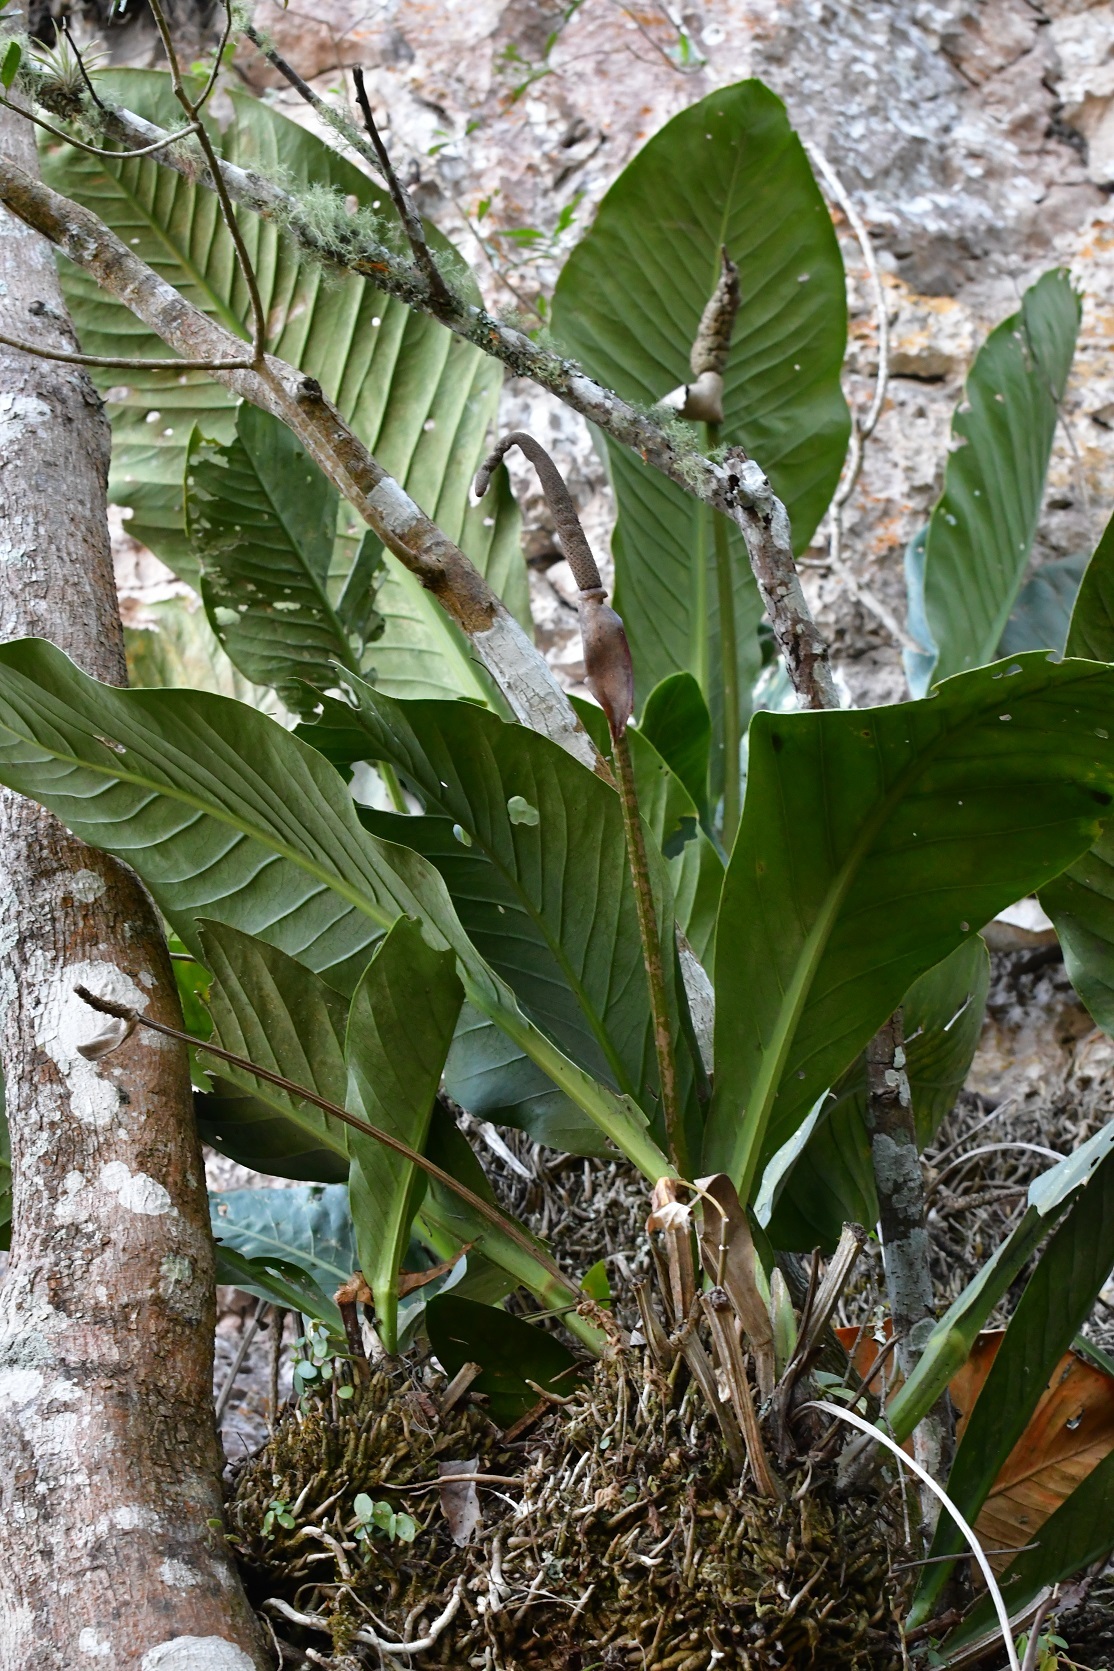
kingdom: Plantae
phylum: Tracheophyta
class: Liliopsida
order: Alismatales
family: Araceae
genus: Anthurium
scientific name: Anthurium schlechtendalii
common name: Laceleaf
